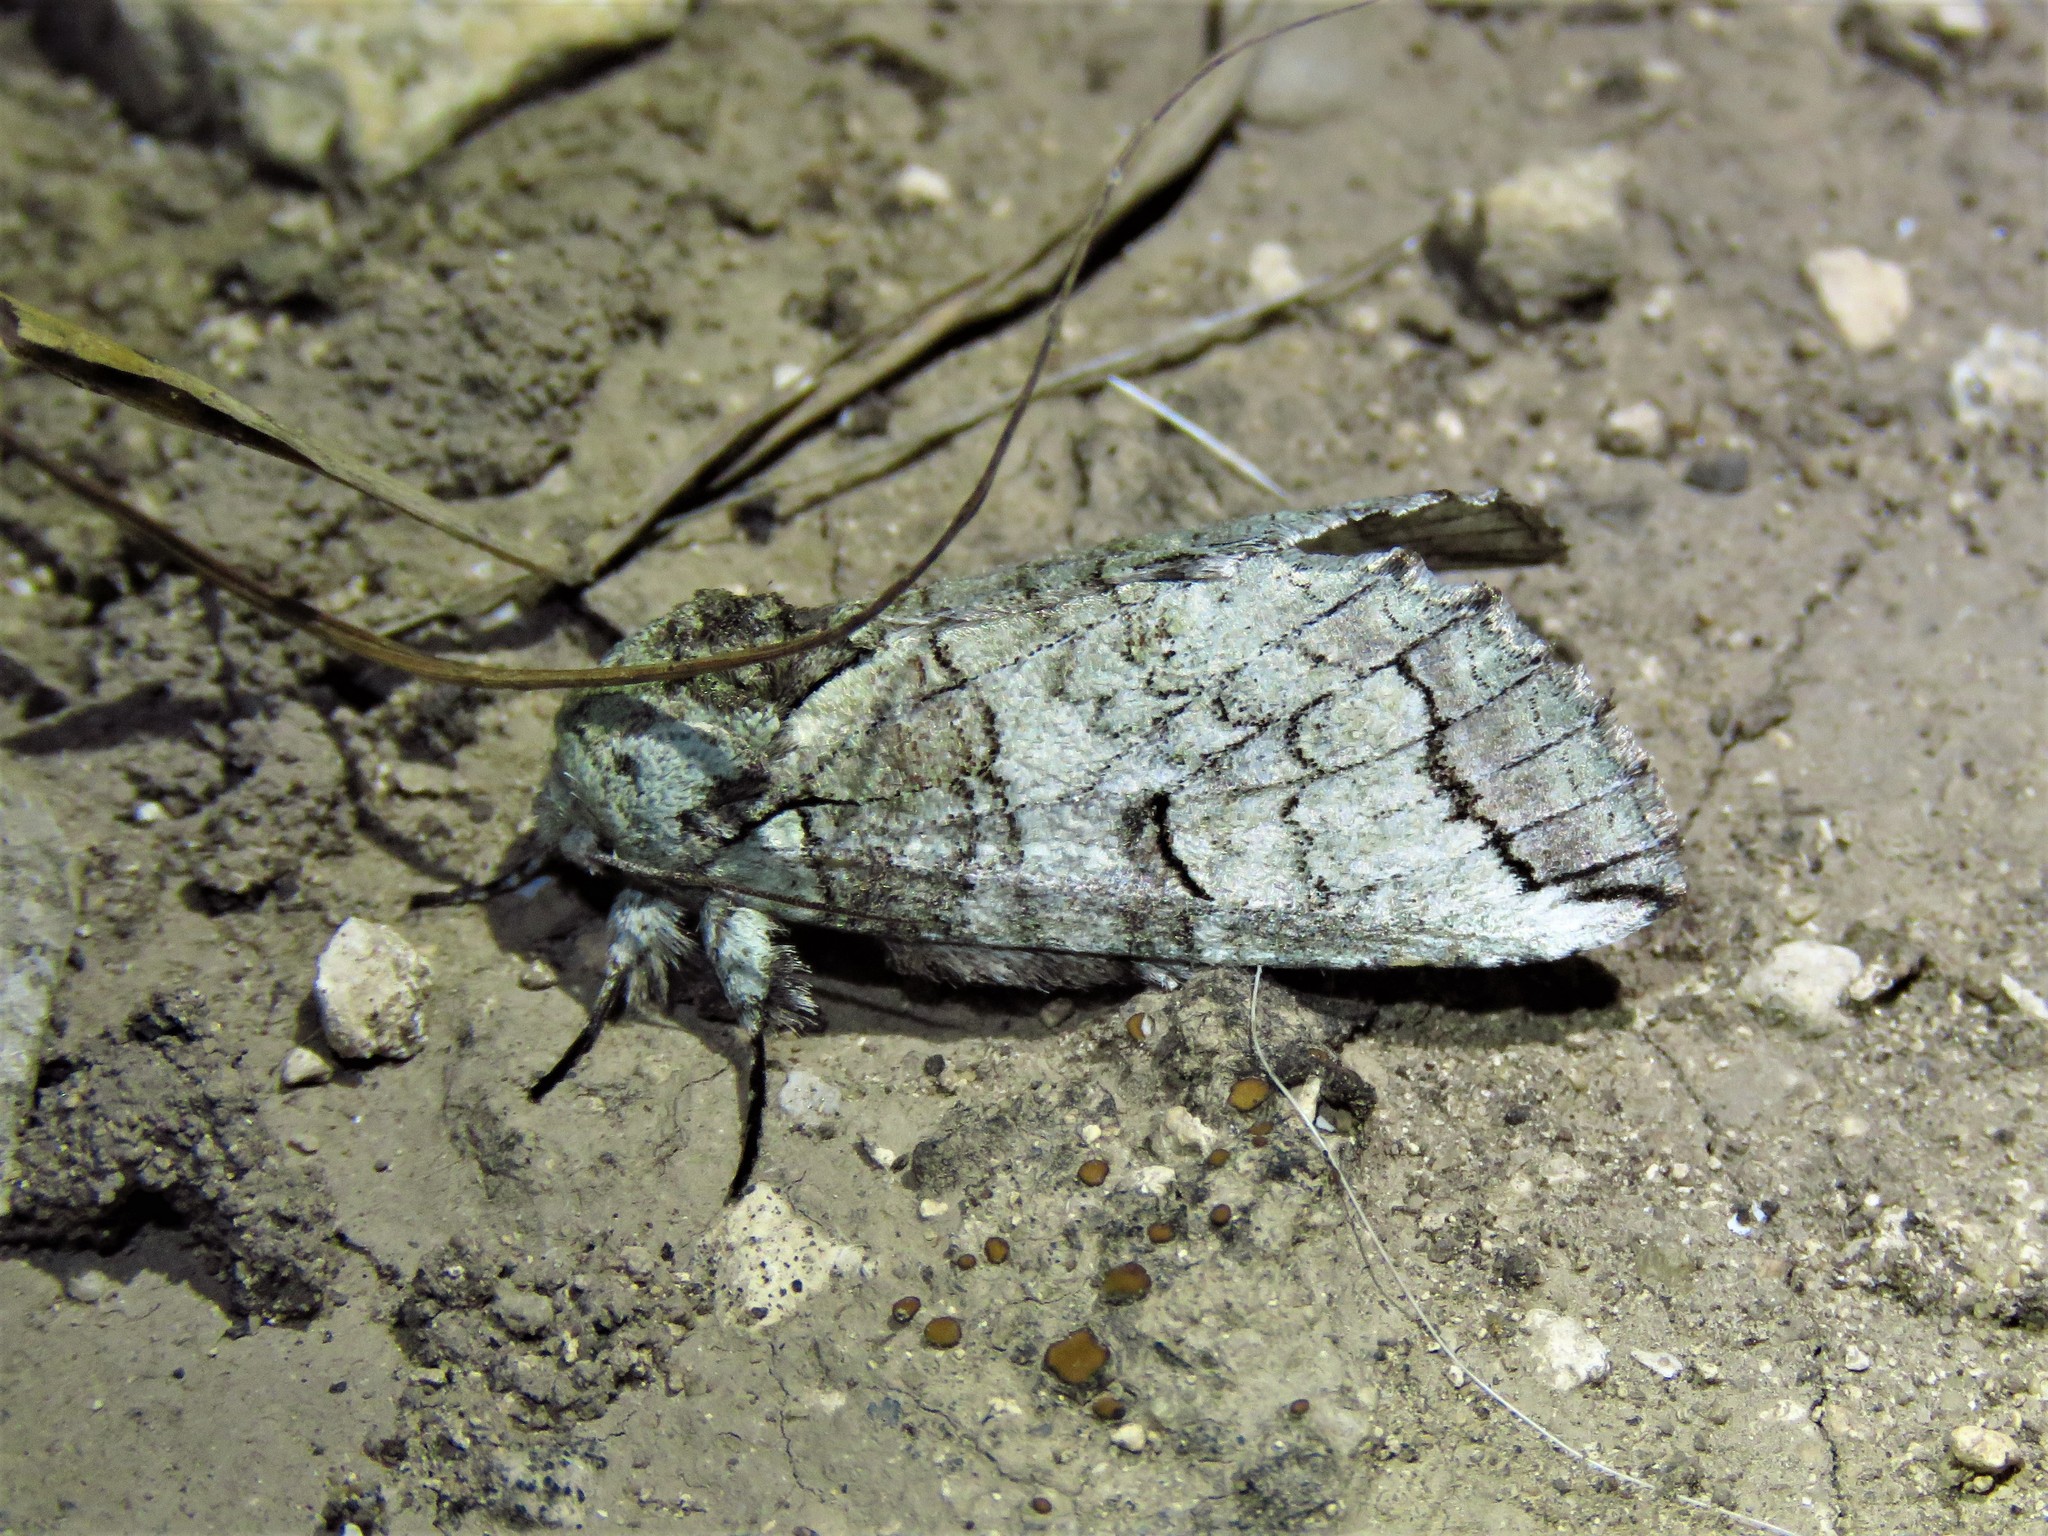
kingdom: Animalia
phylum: Arthropoda
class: Insecta
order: Lepidoptera
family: Notodontidae
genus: Heterocampa
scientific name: Heterocampa astartoides
